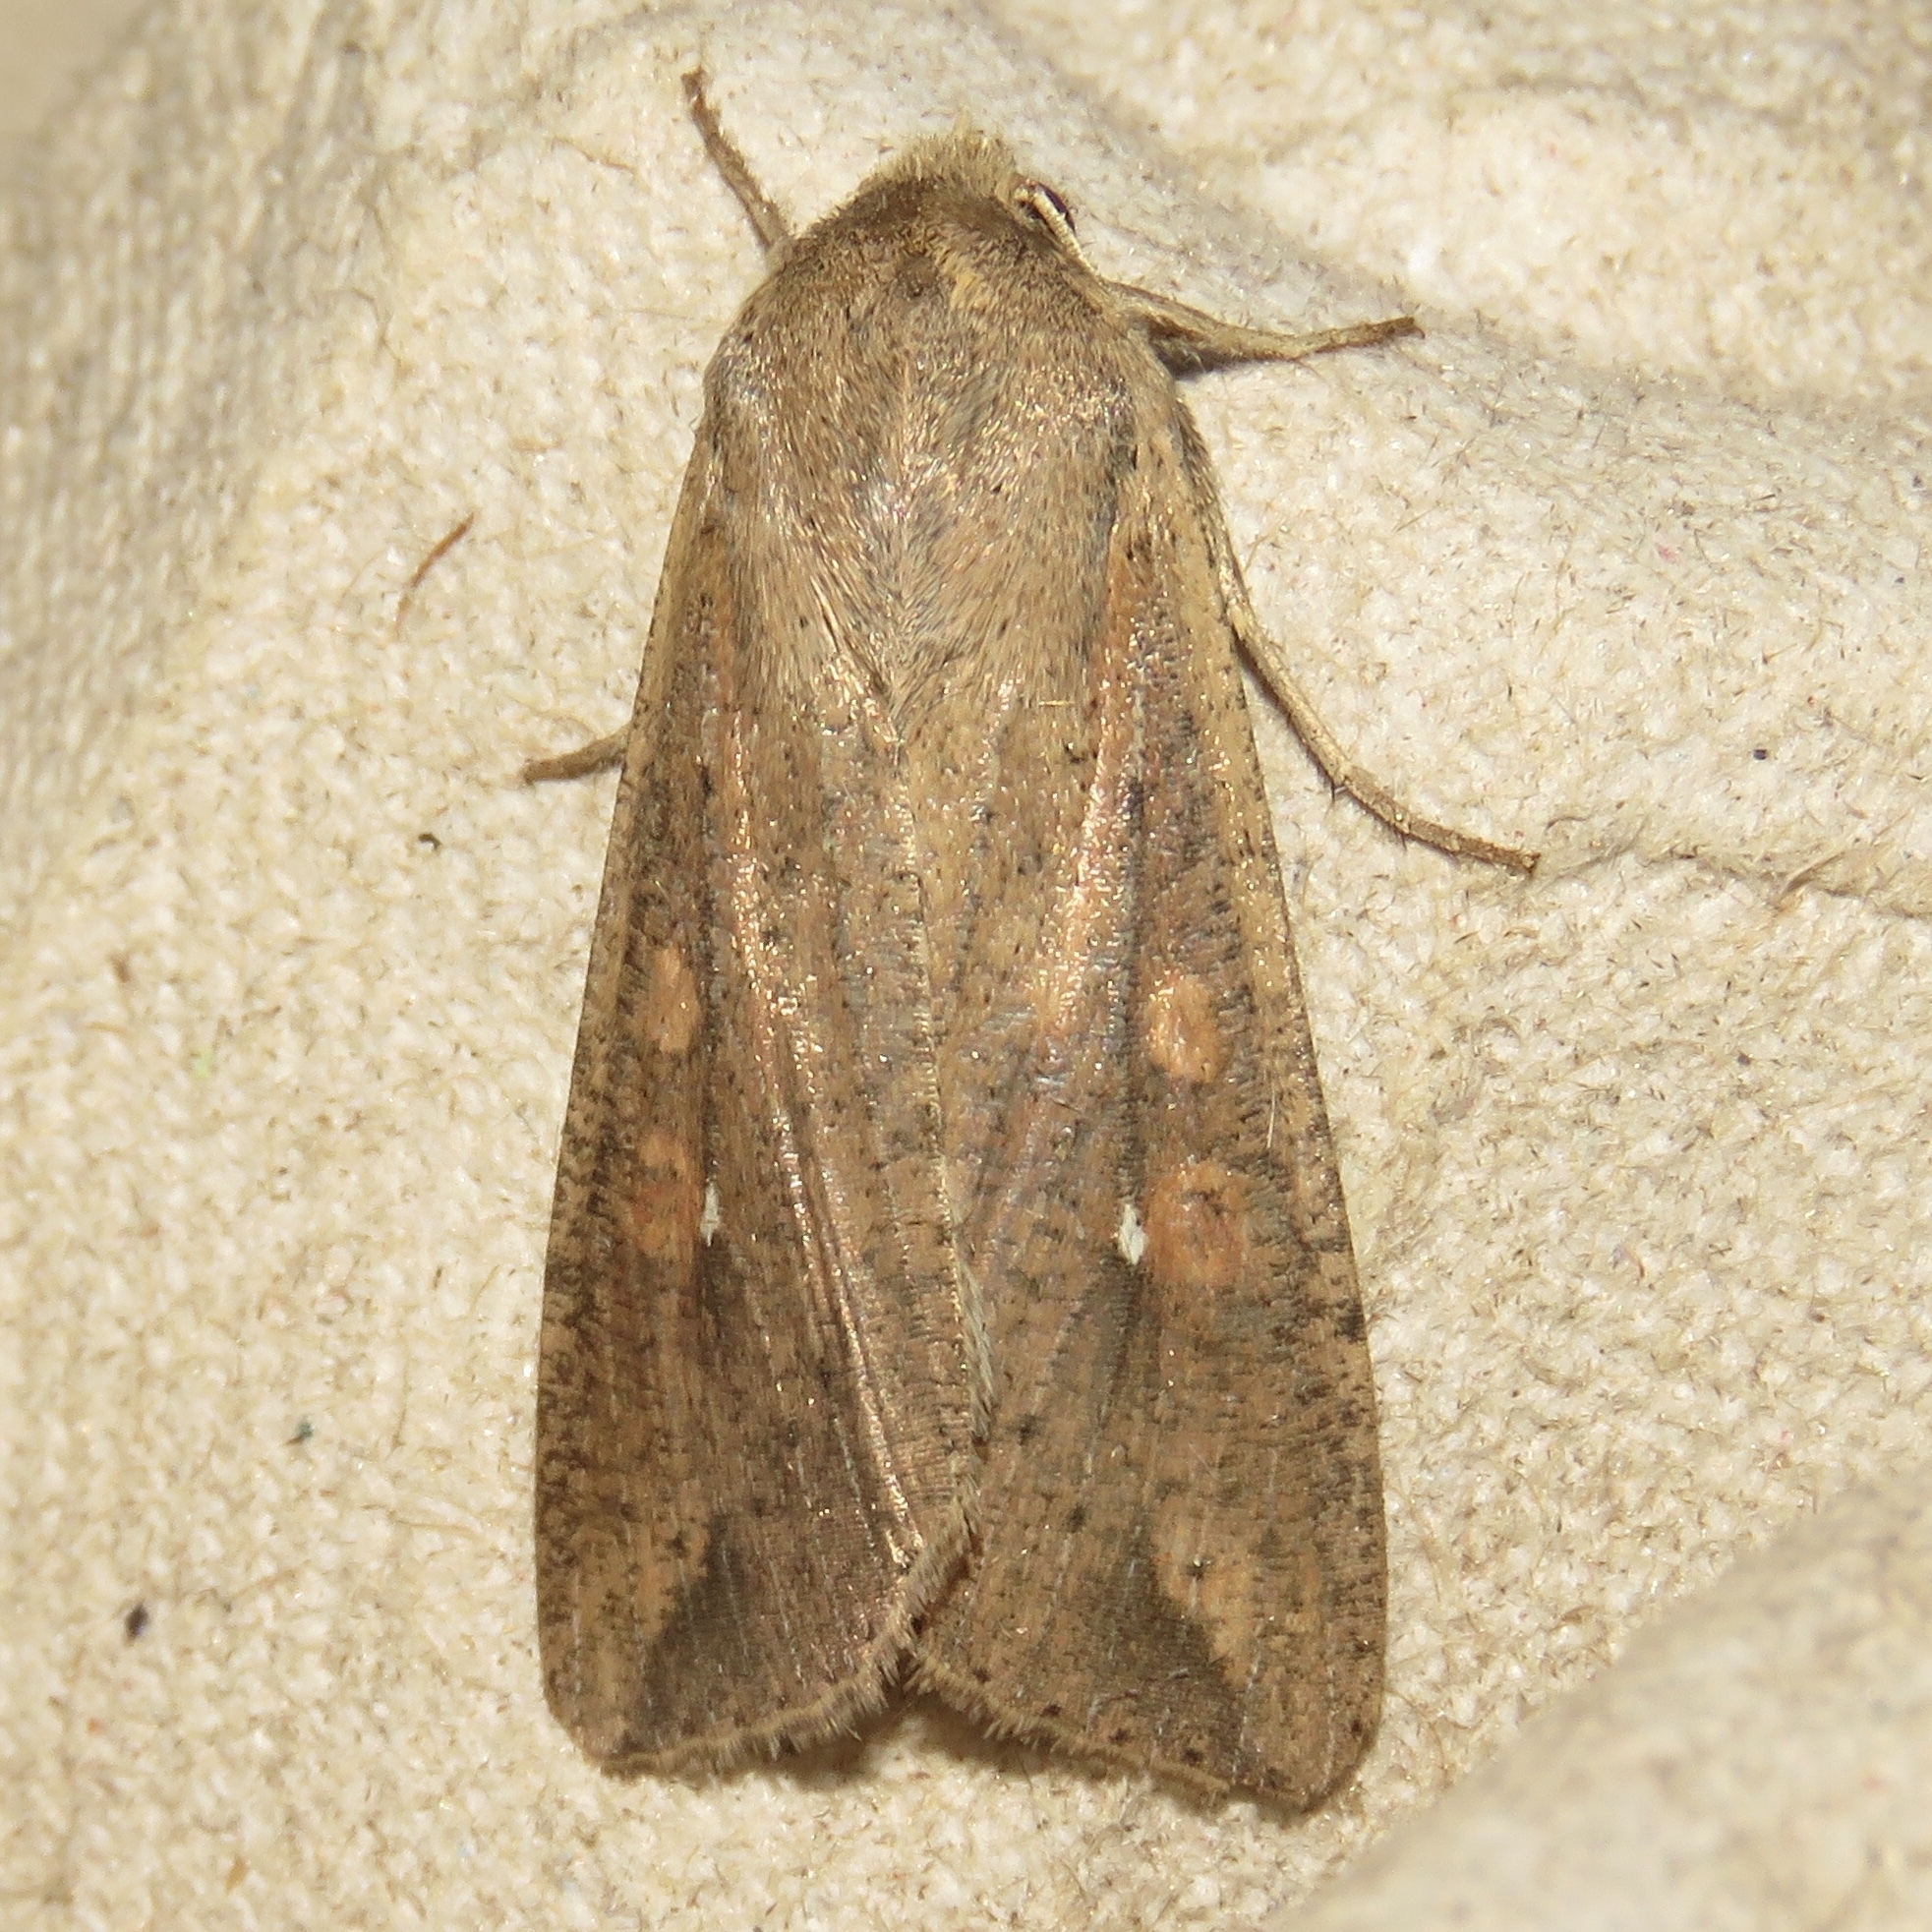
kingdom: Animalia
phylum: Arthropoda
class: Insecta
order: Lepidoptera
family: Noctuidae
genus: Mythimna
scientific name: Mythimna unipuncta
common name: White-speck
